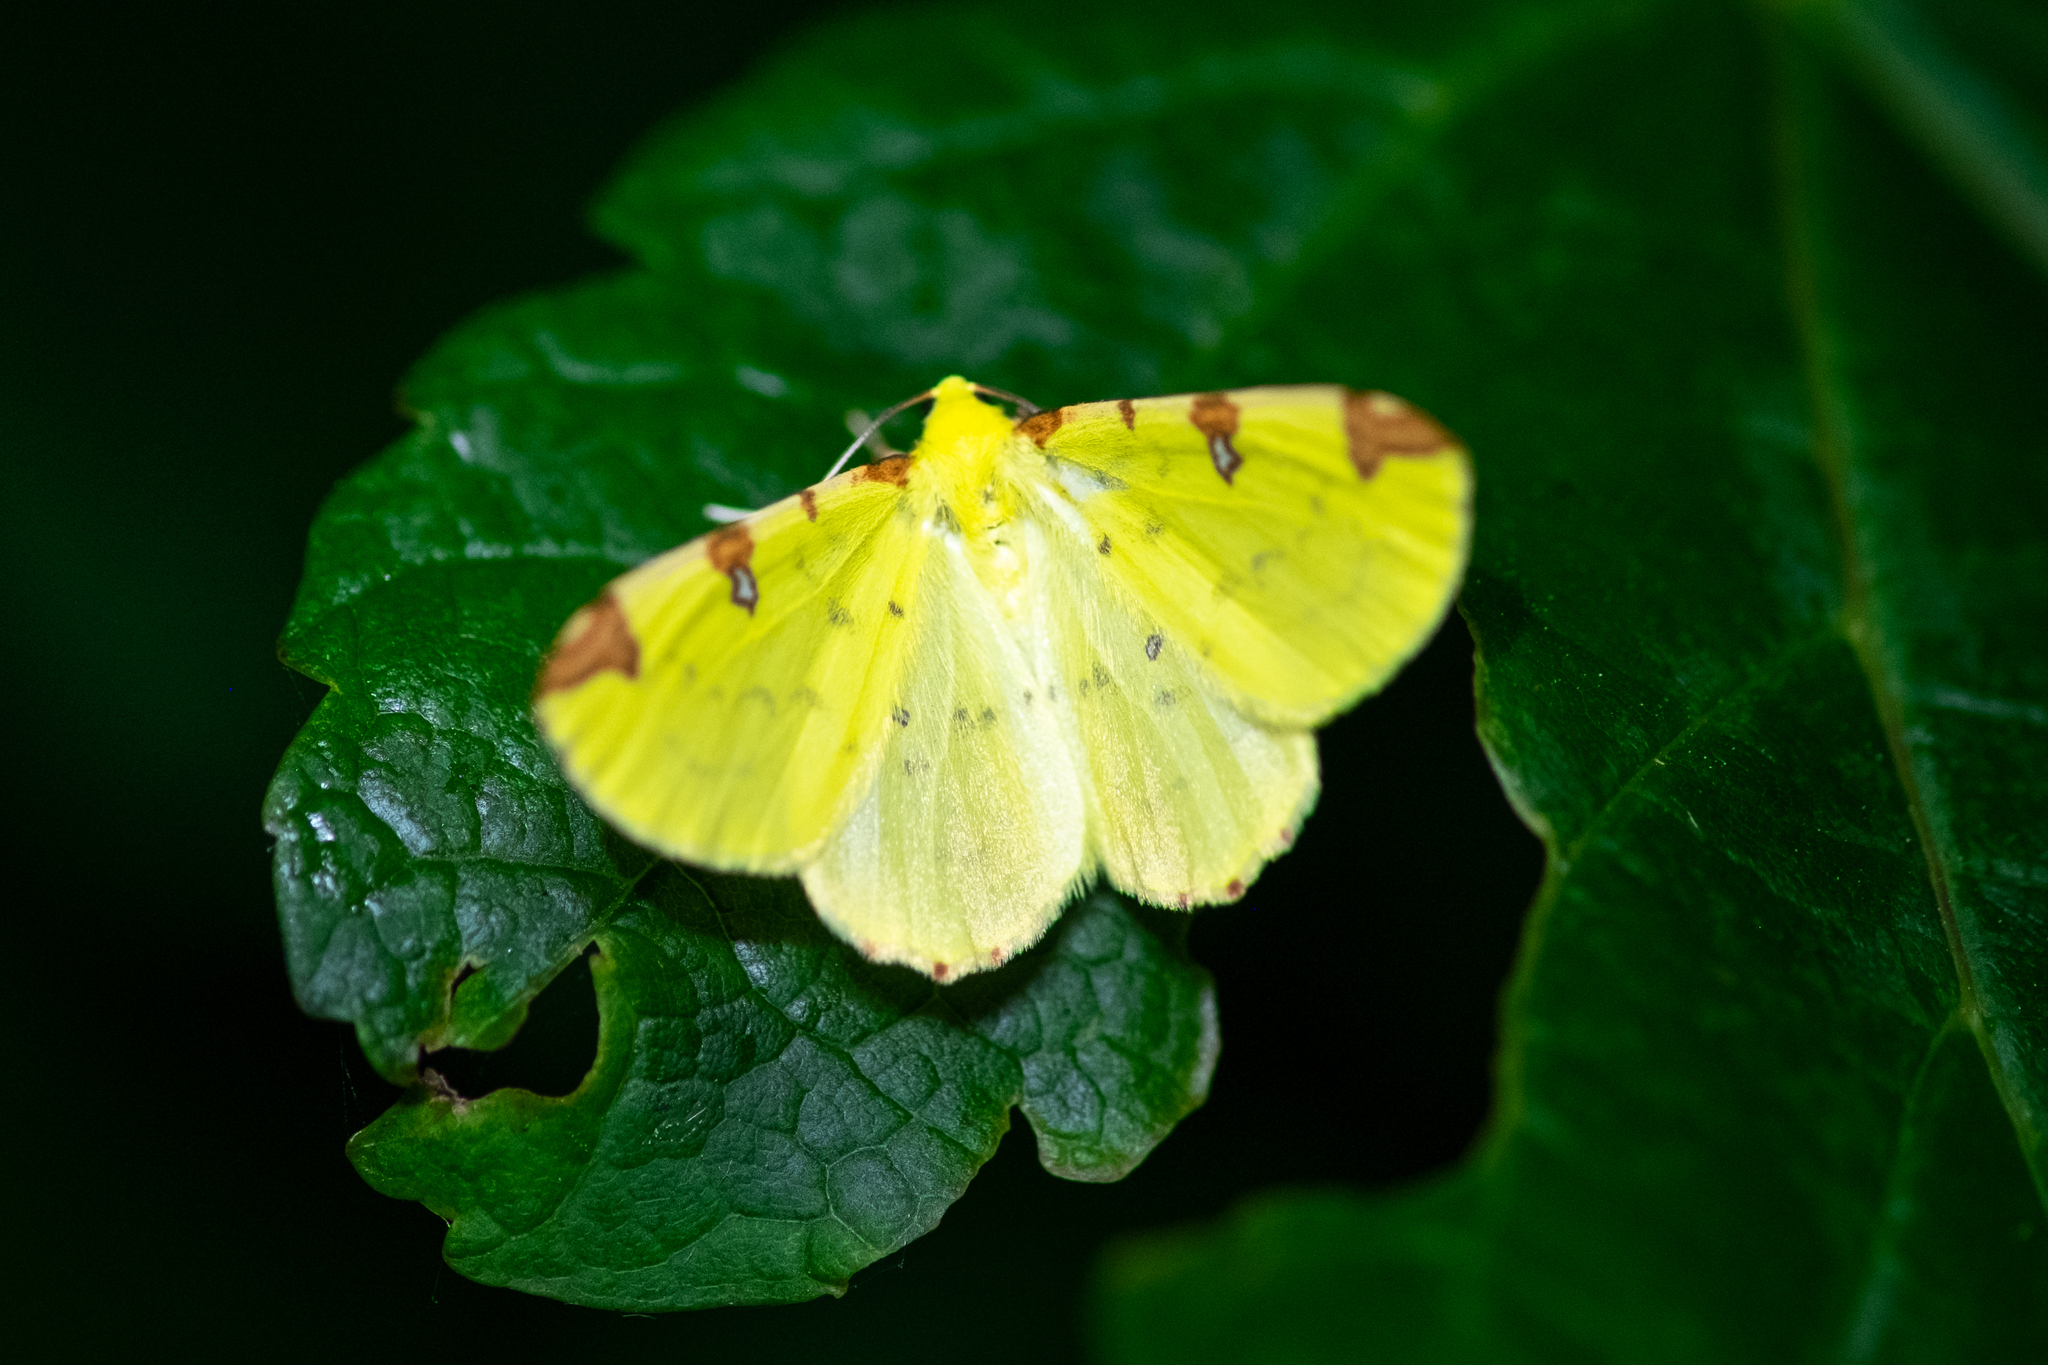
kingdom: Animalia
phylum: Arthropoda
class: Insecta
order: Lepidoptera
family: Geometridae
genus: Opisthograptis
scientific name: Opisthograptis luteolata
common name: Brimstone moth
